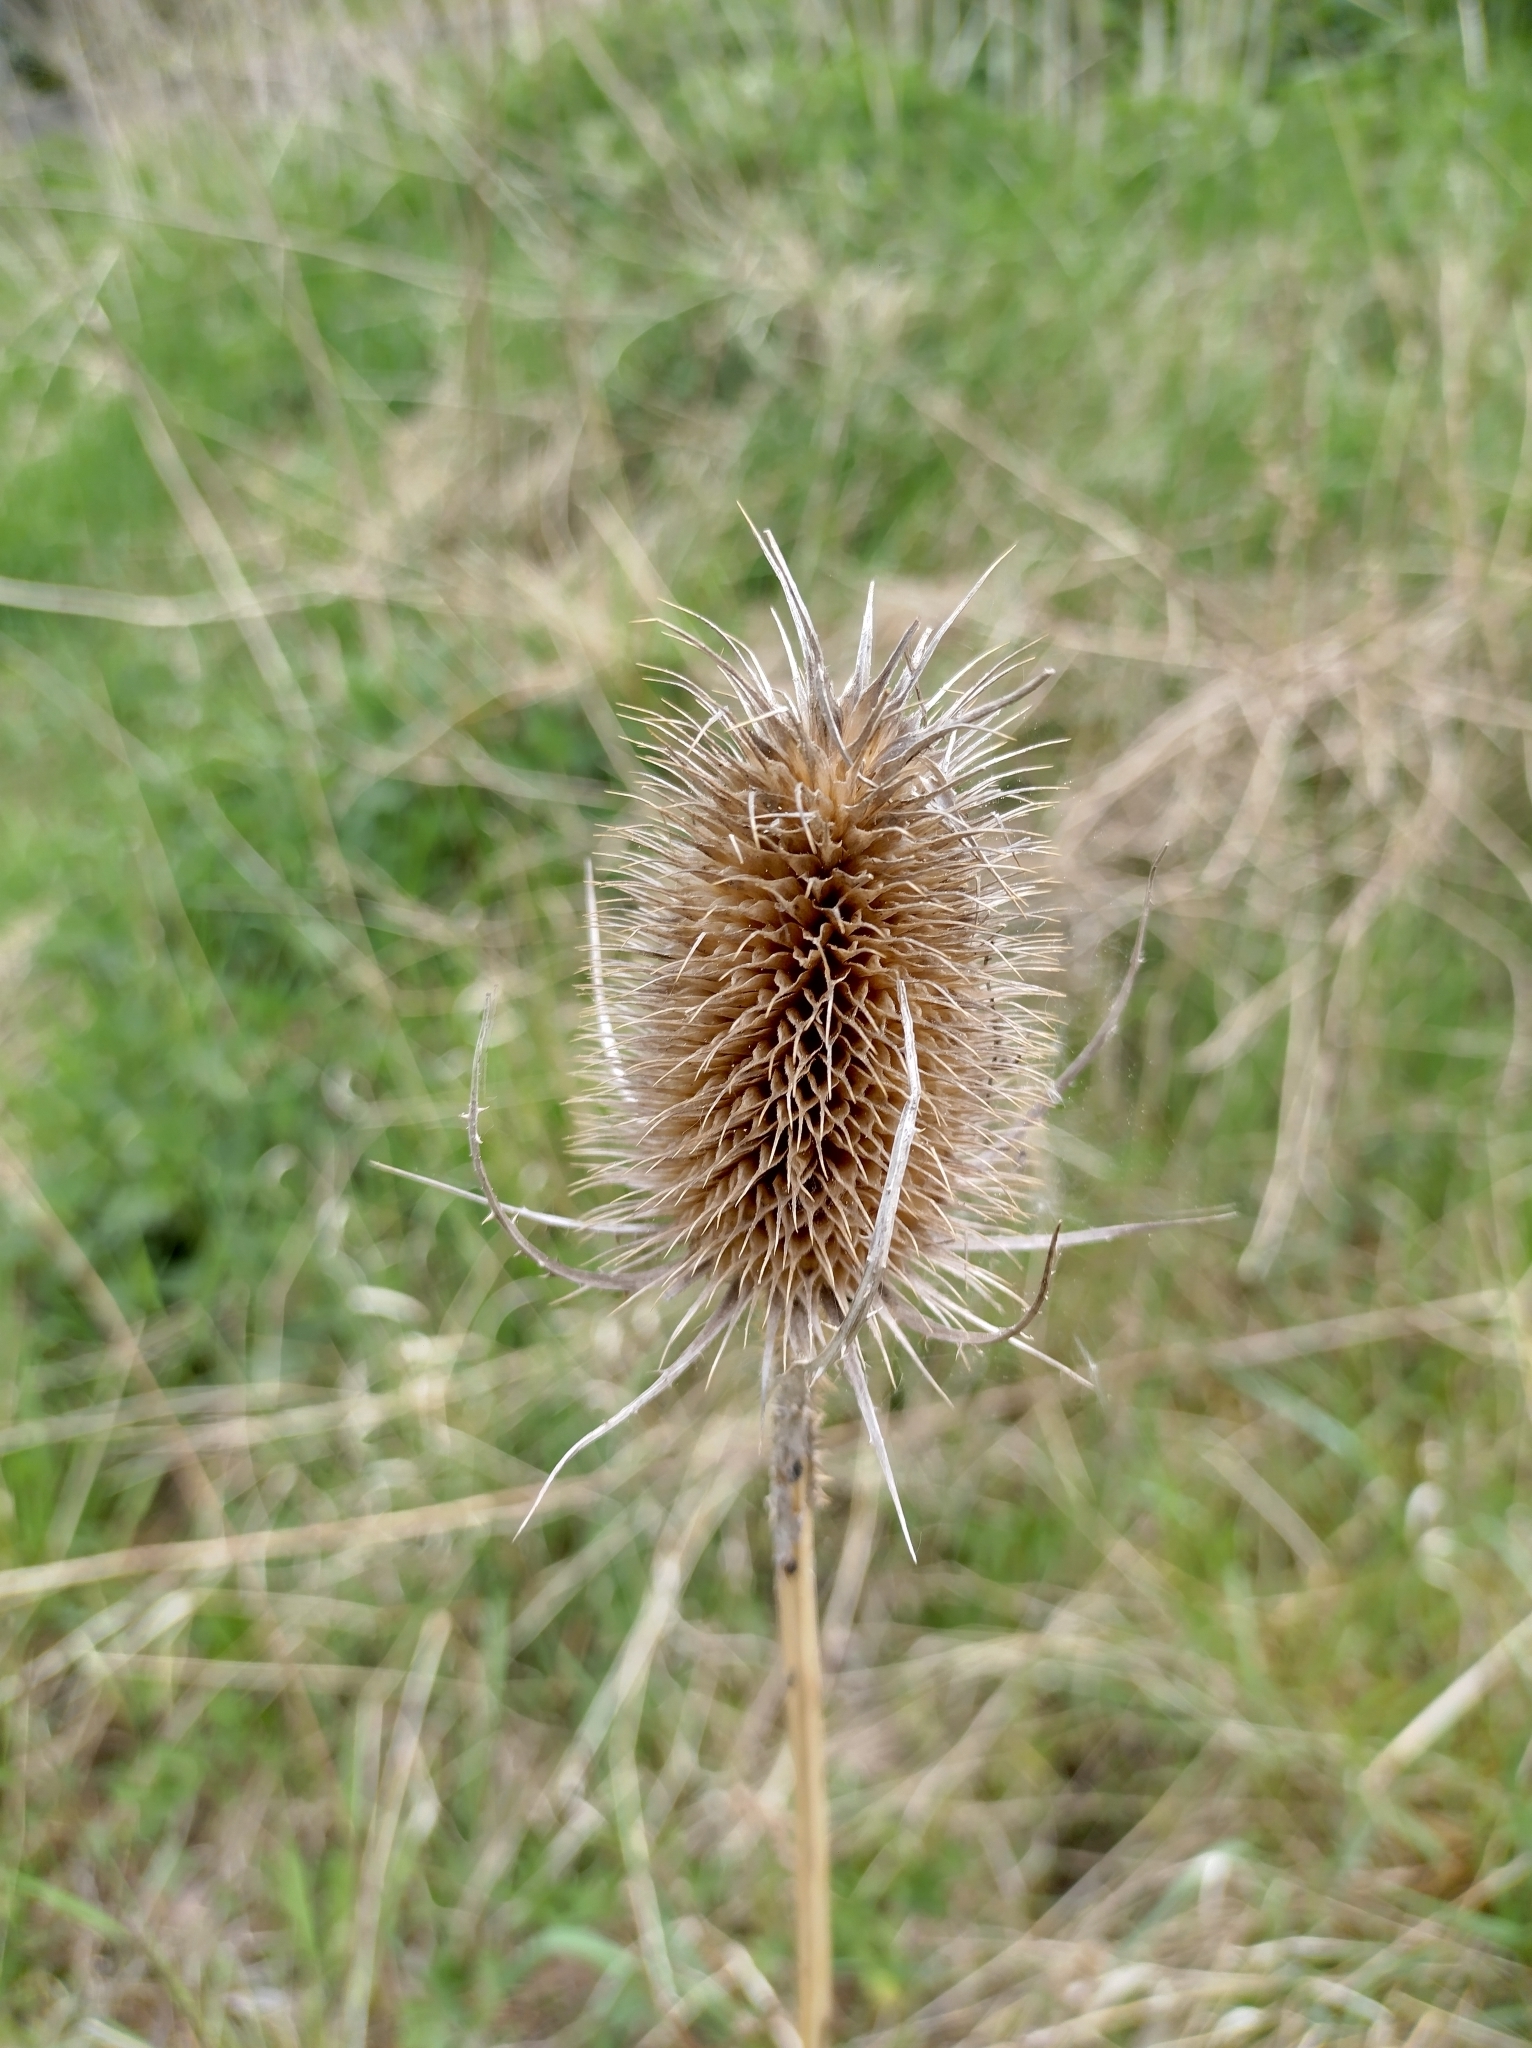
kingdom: Plantae
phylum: Tracheophyta
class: Magnoliopsida
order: Dipsacales
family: Caprifoliaceae
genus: Dipsacus
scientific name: Dipsacus fullonum
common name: Teasel
